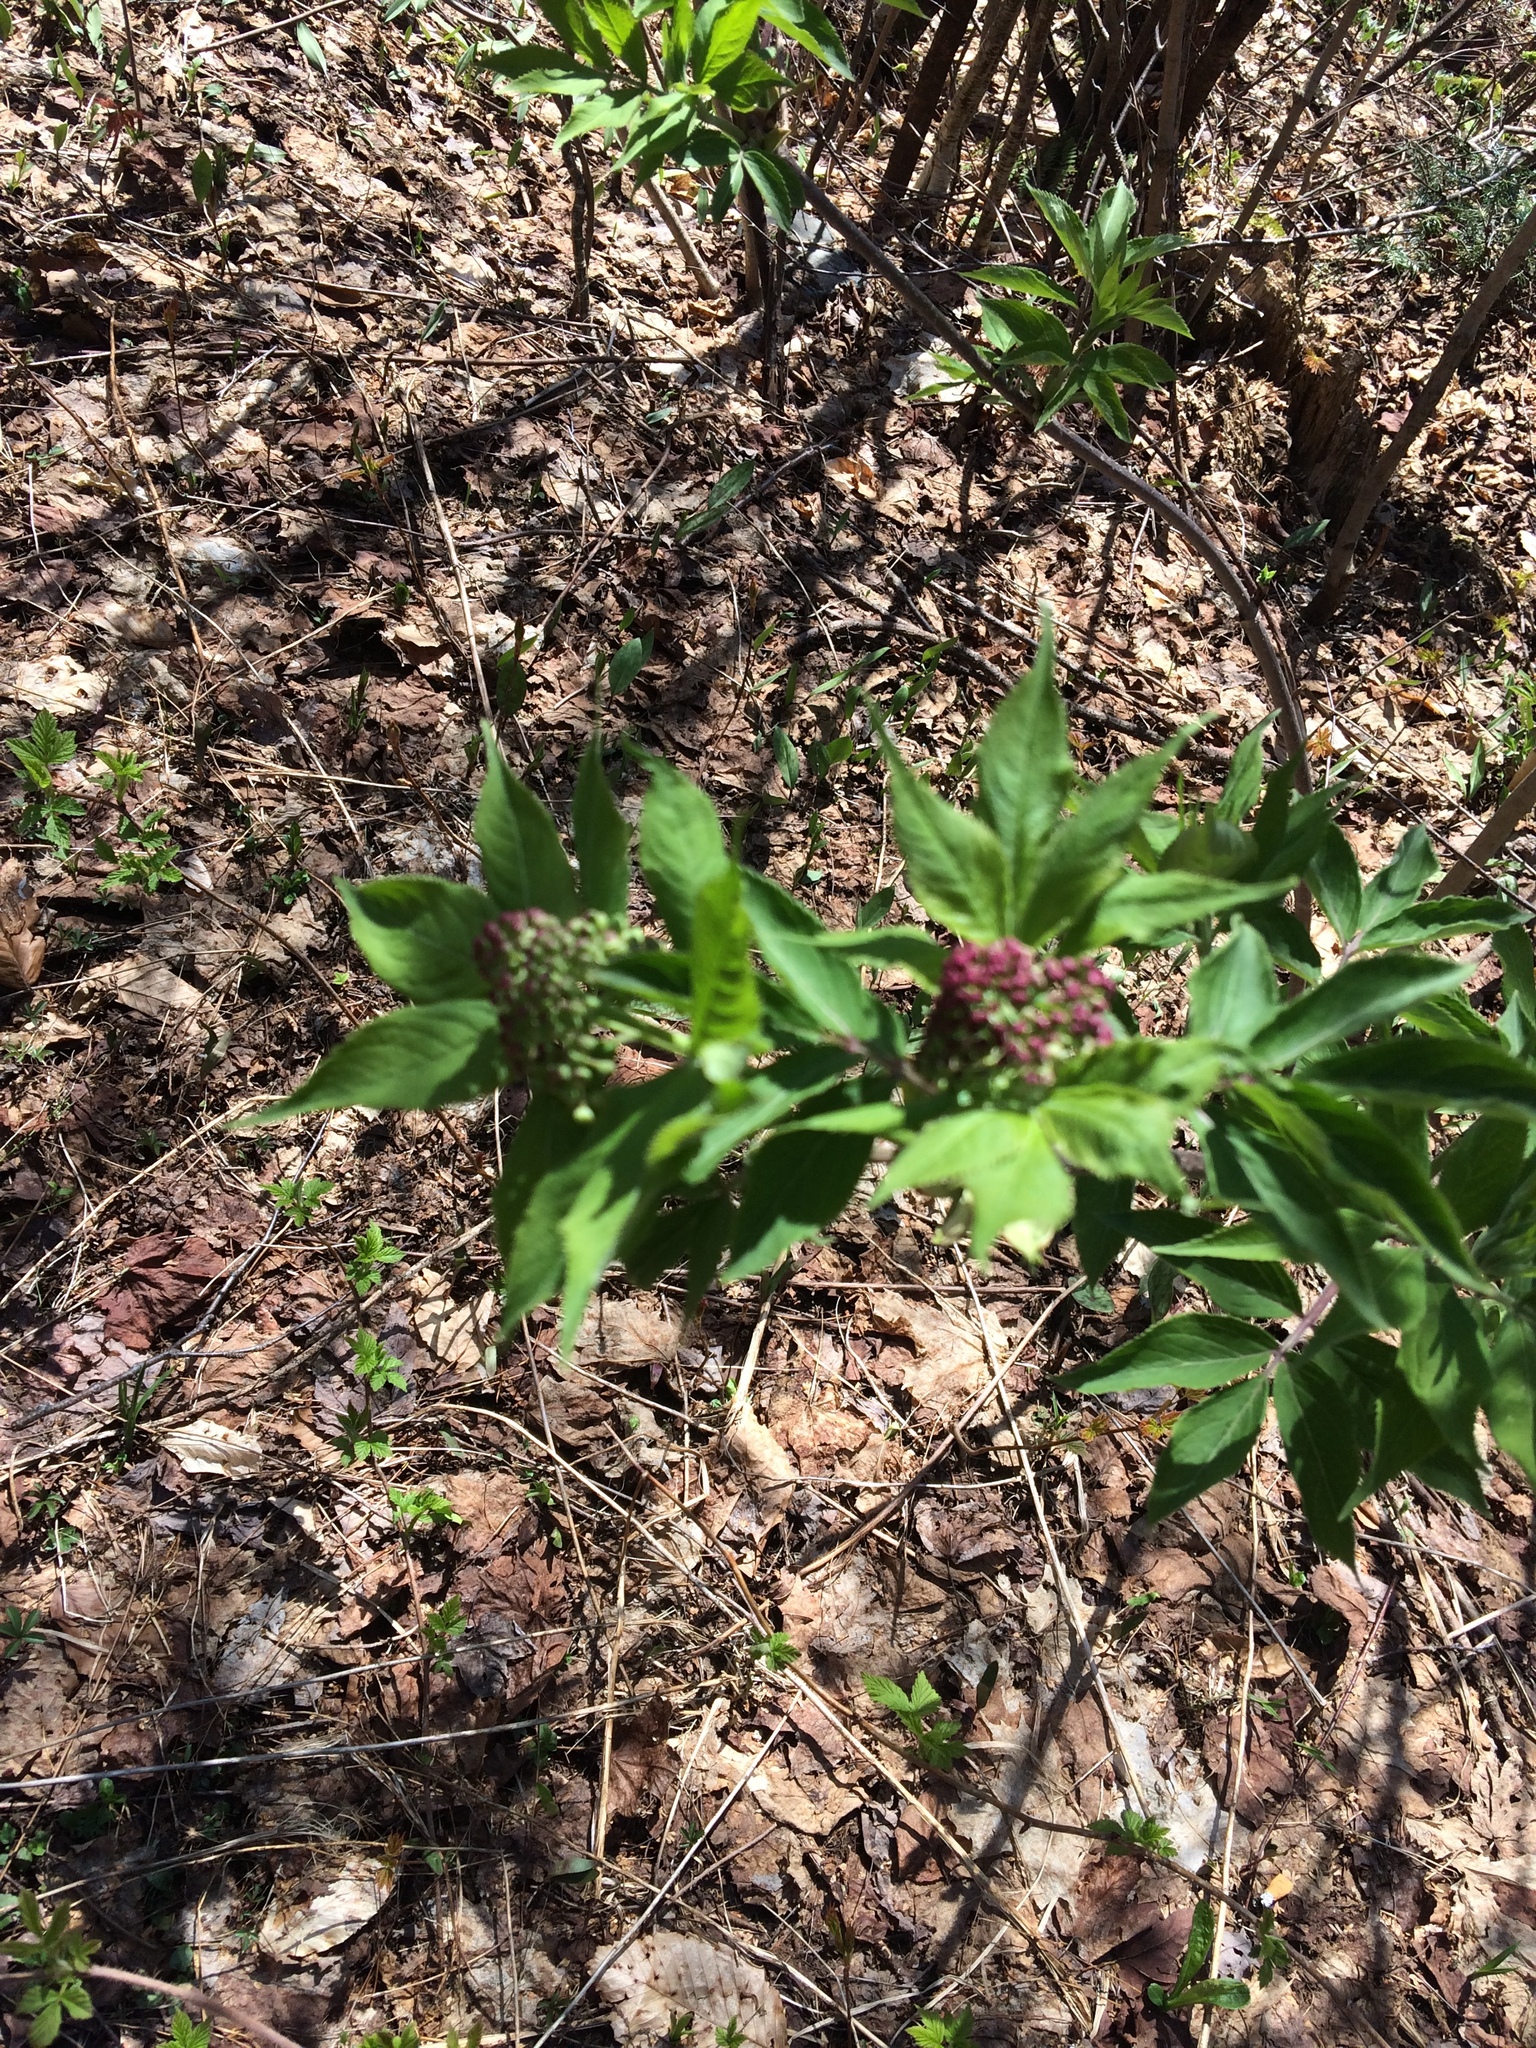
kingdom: Plantae
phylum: Tracheophyta
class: Magnoliopsida
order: Dipsacales
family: Viburnaceae
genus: Sambucus
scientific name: Sambucus racemosa
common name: Red-berried elder
